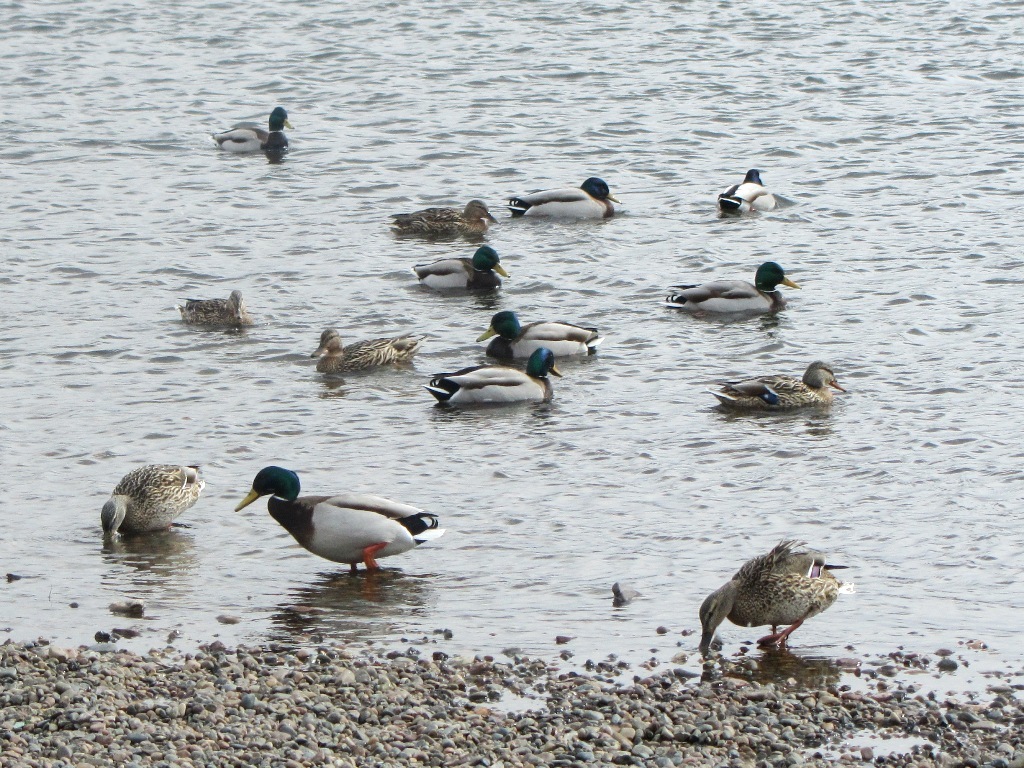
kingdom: Animalia
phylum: Chordata
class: Aves
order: Anseriformes
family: Anatidae
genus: Anas
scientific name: Anas platyrhynchos
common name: Mallard
